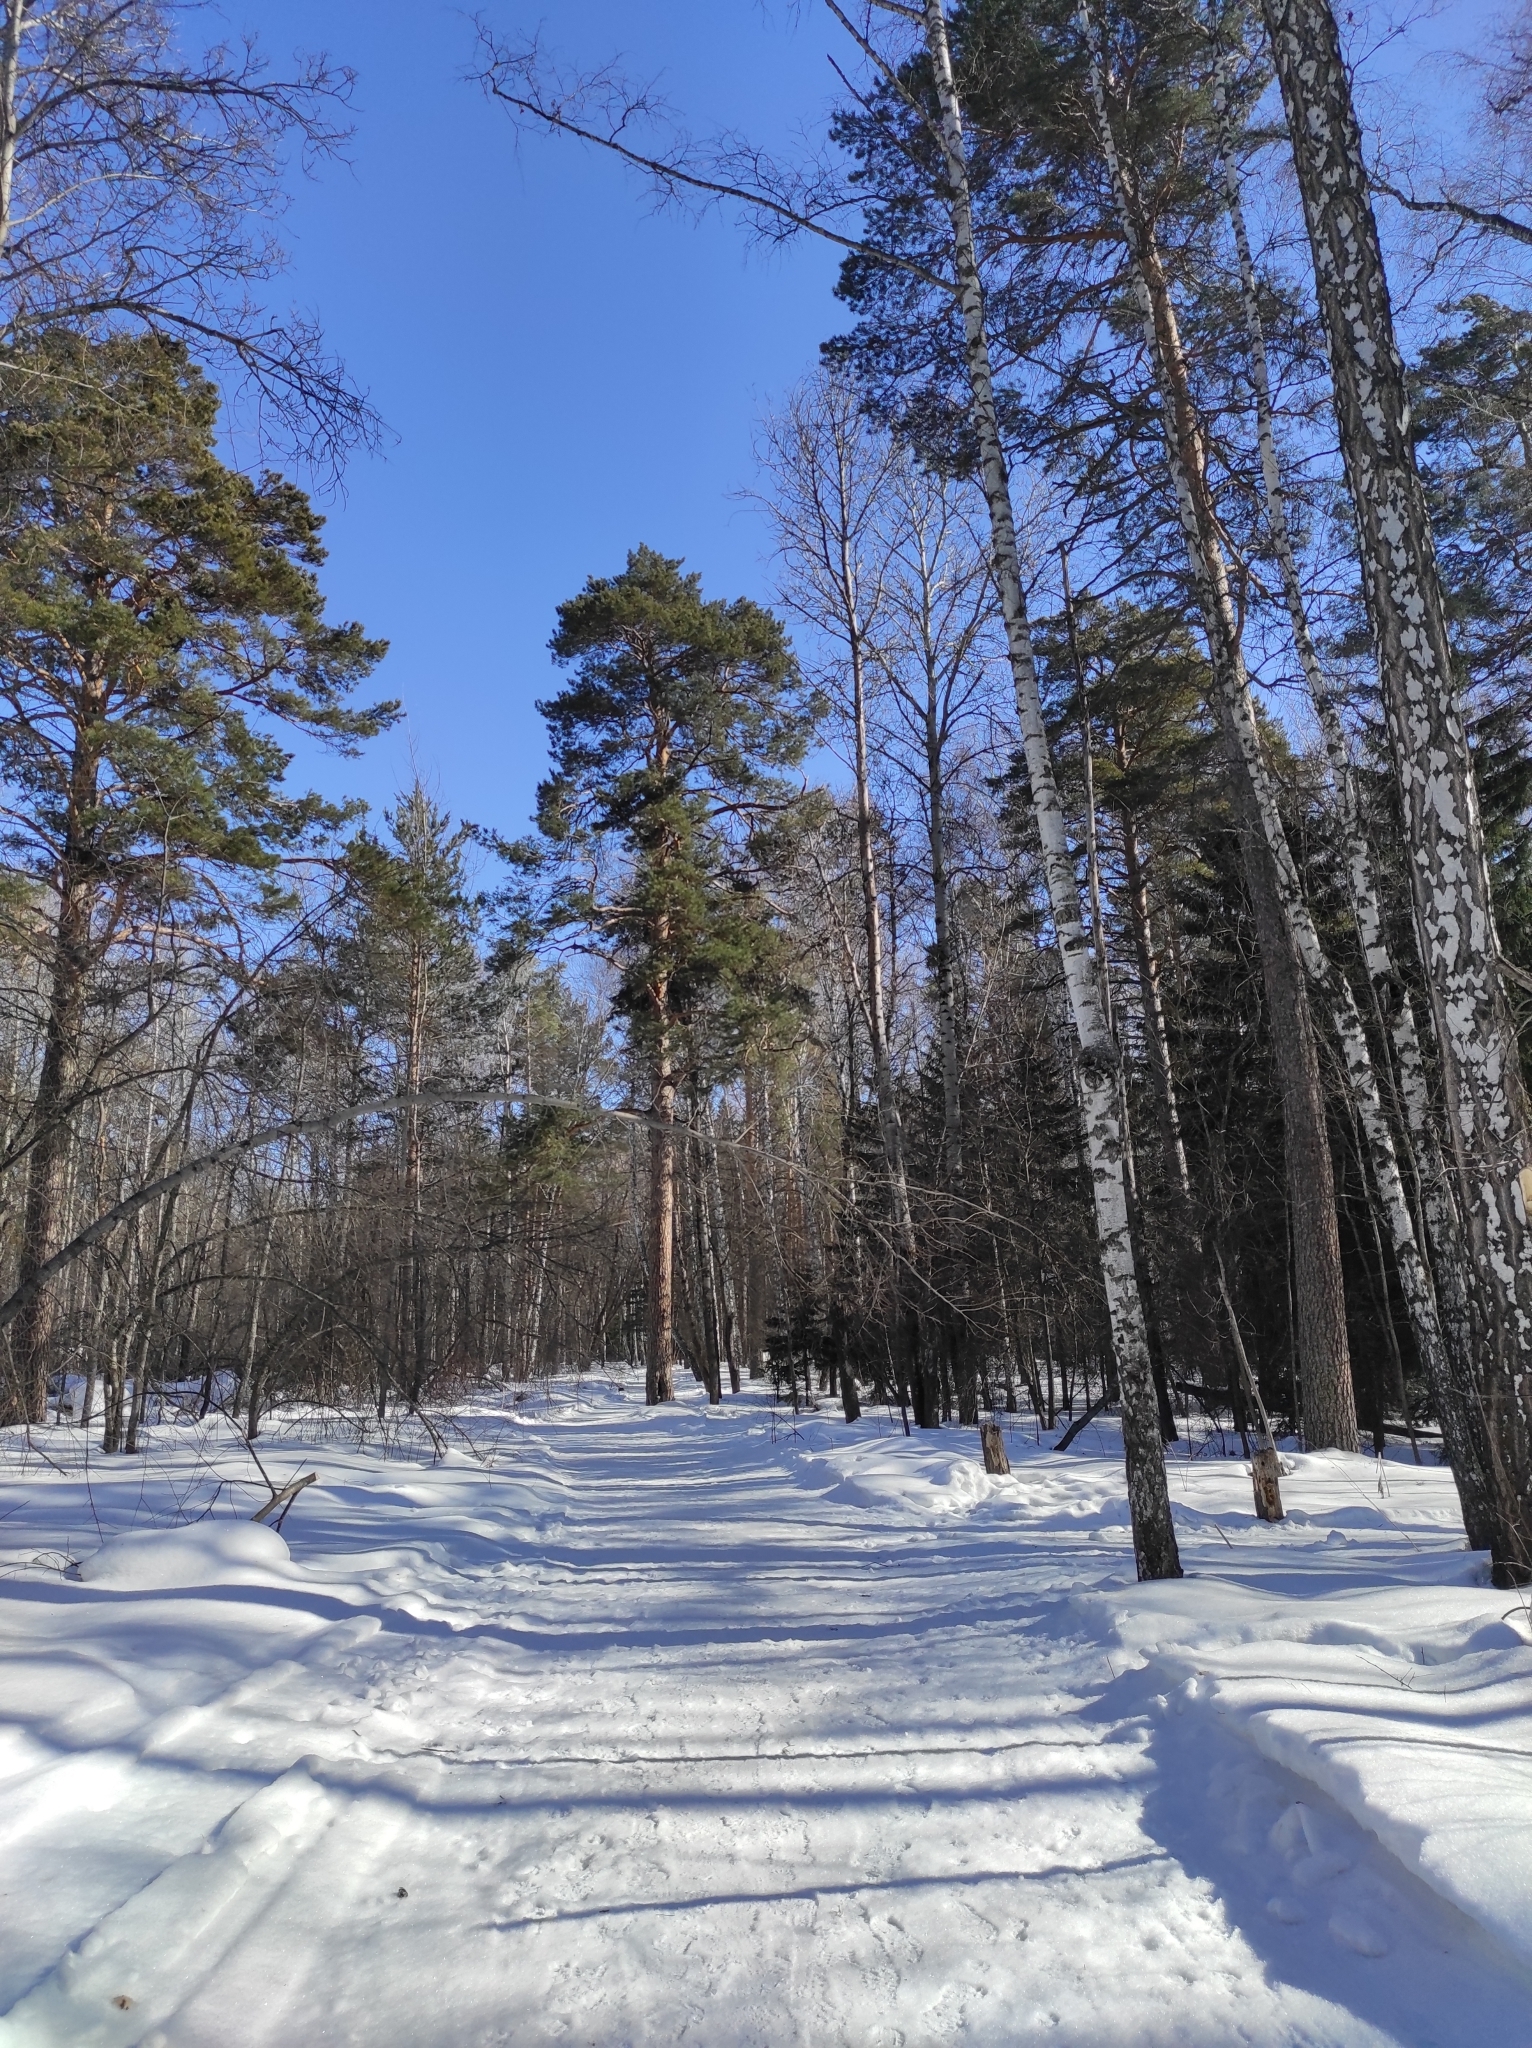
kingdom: Plantae
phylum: Tracheophyta
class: Pinopsida
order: Pinales
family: Pinaceae
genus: Pinus
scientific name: Pinus sylvestris
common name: Scots pine
